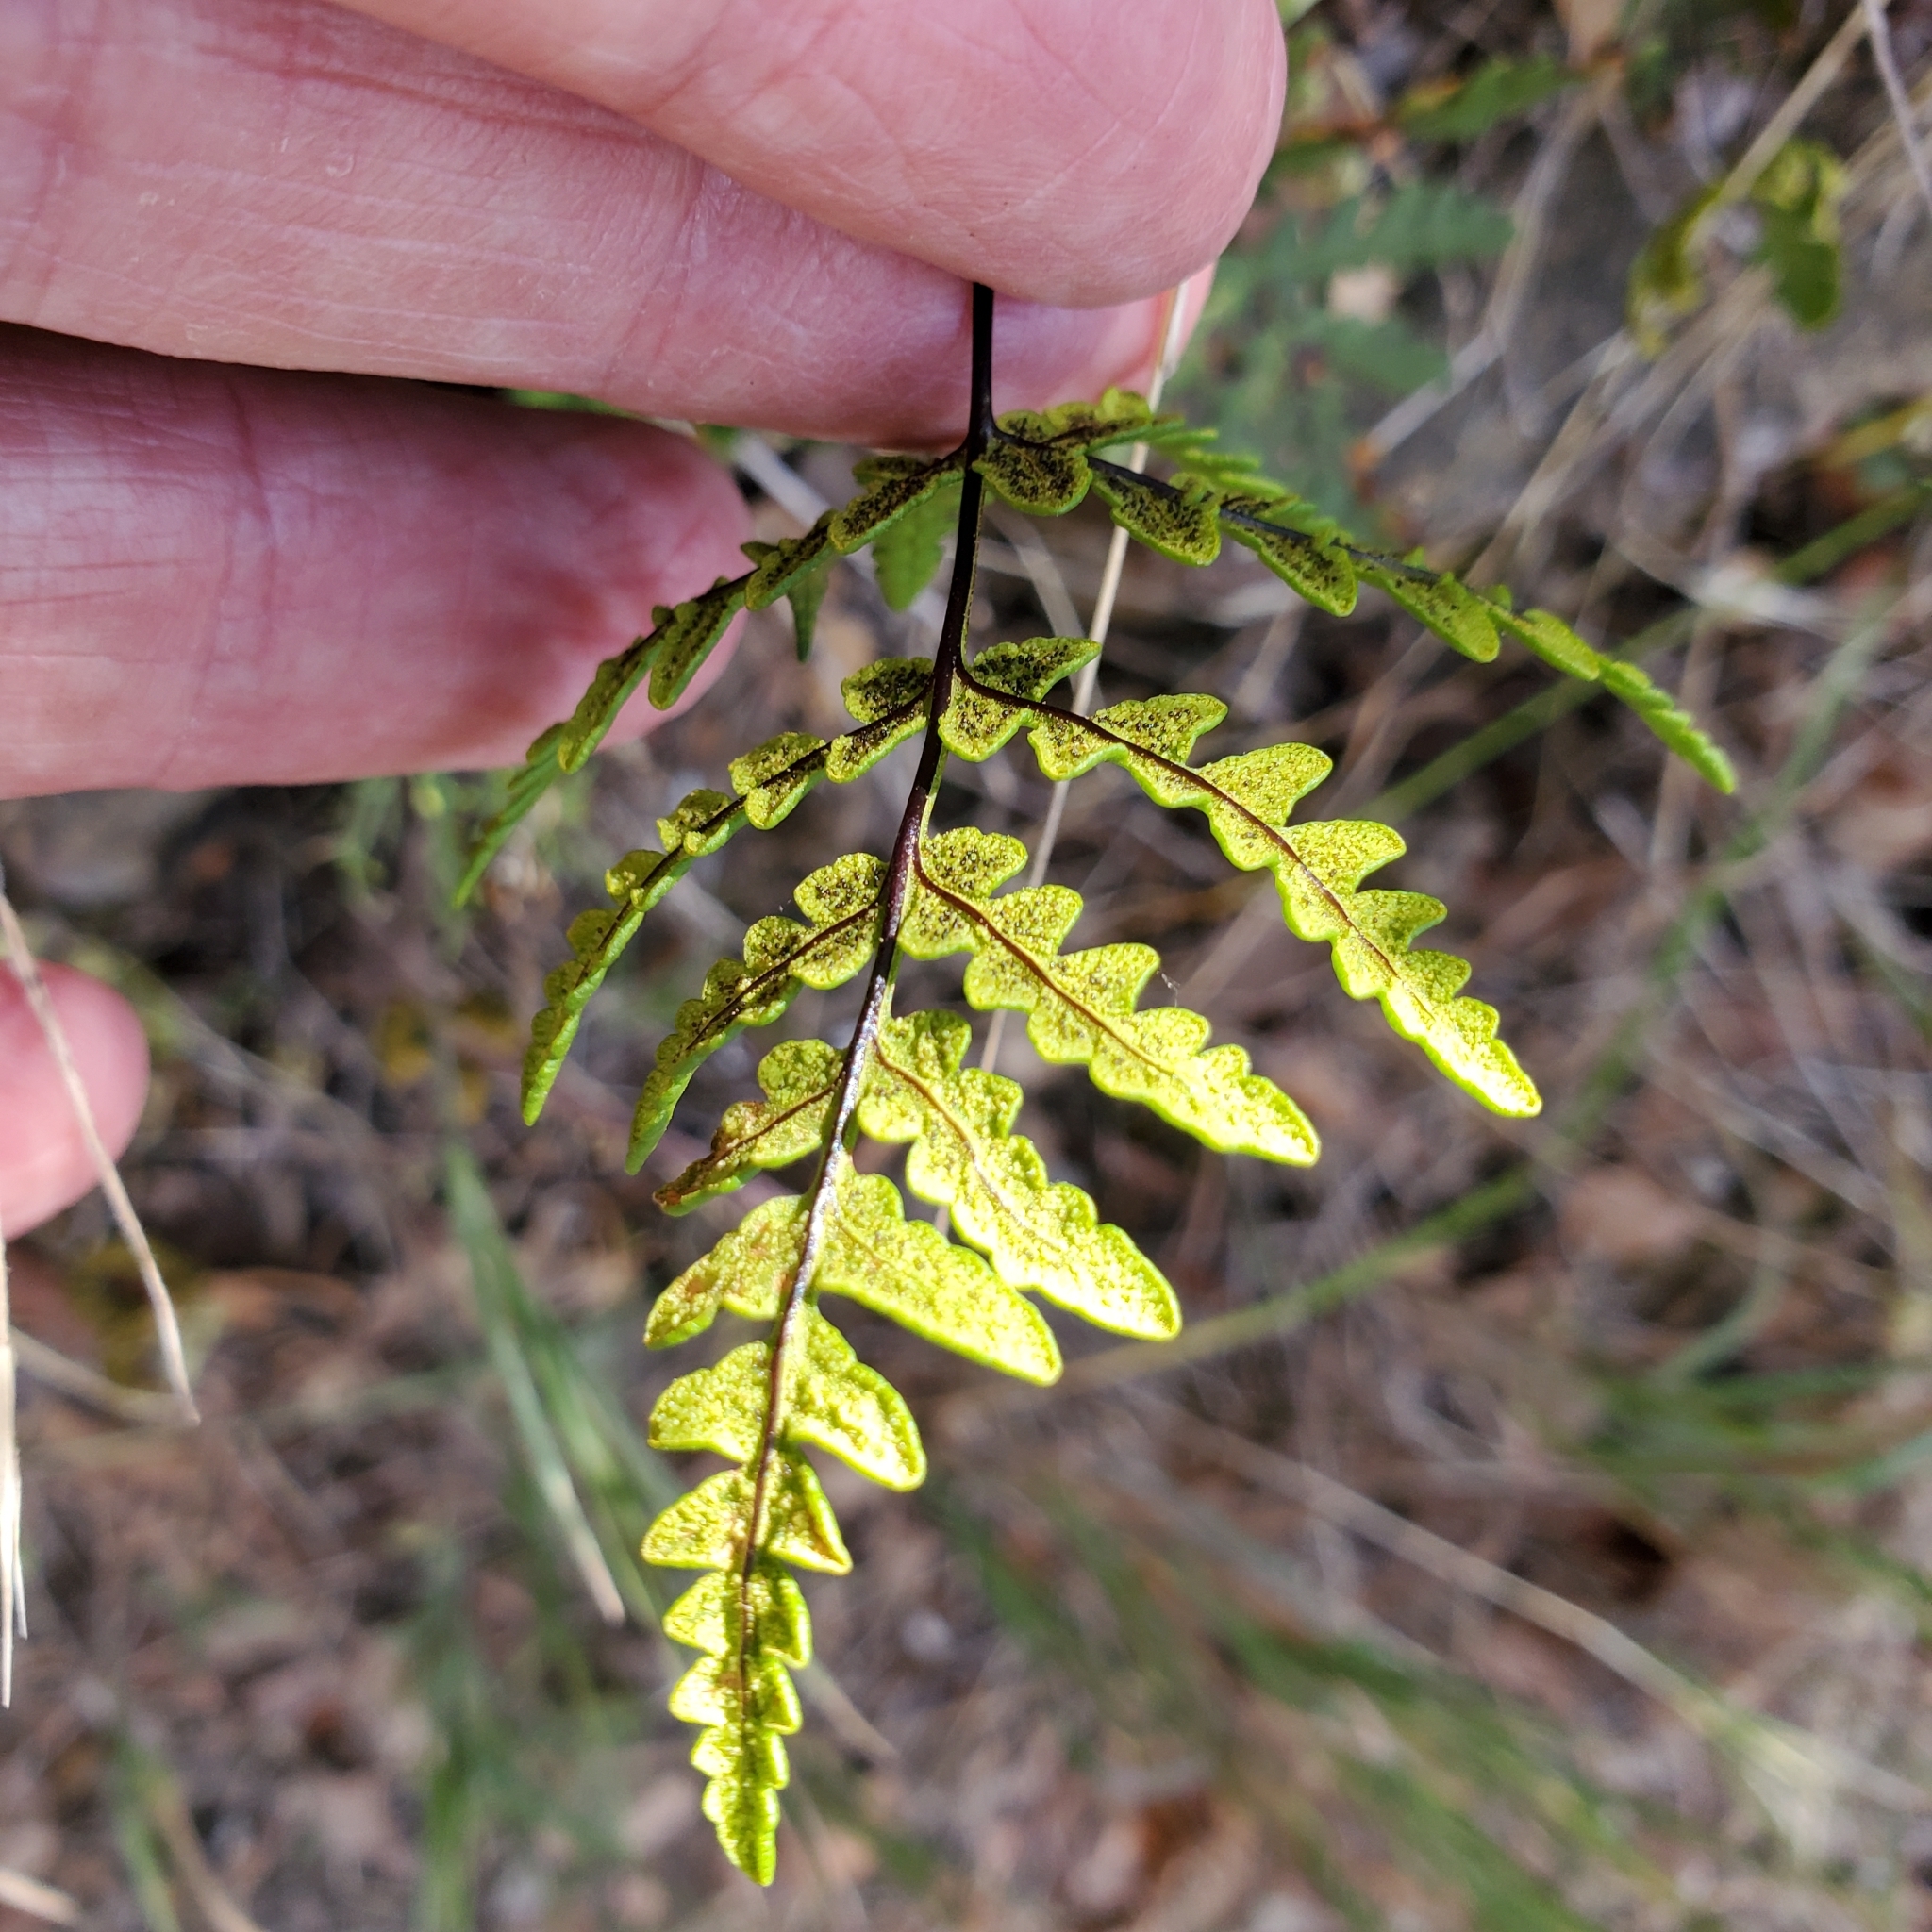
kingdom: Plantae
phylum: Tracheophyta
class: Polypodiopsida
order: Polypodiales
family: Pteridaceae
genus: Pentagramma
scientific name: Pentagramma triangularis
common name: Gold fern
